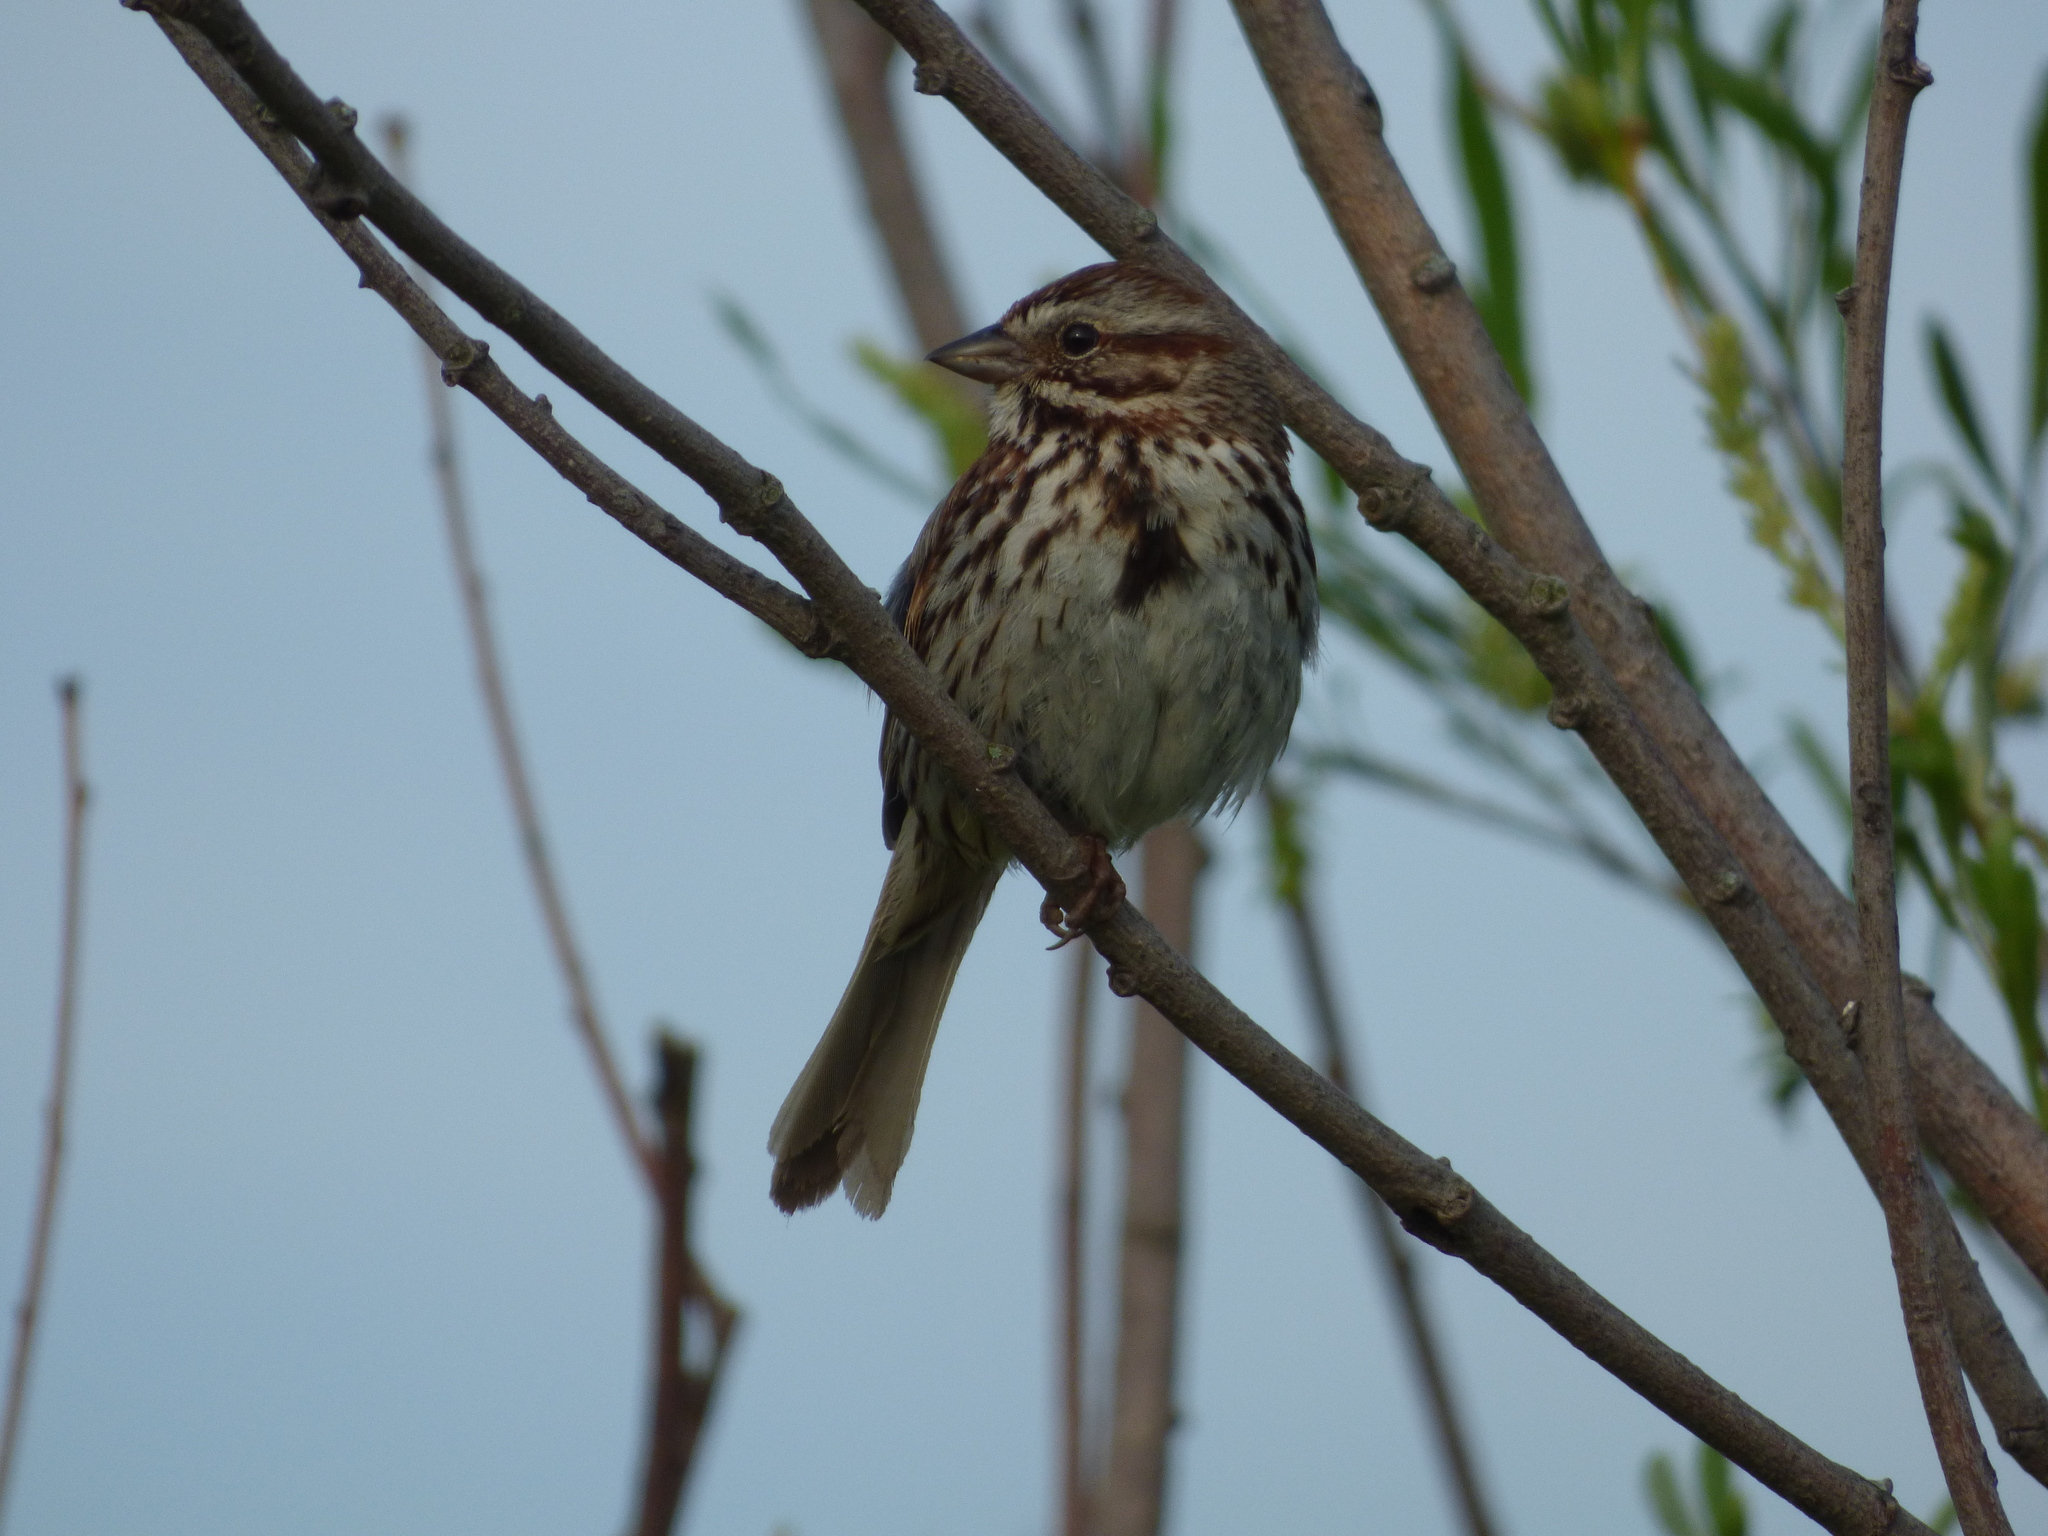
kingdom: Animalia
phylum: Chordata
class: Aves
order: Passeriformes
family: Passerellidae
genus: Melospiza
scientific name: Melospiza melodia
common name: Song sparrow
